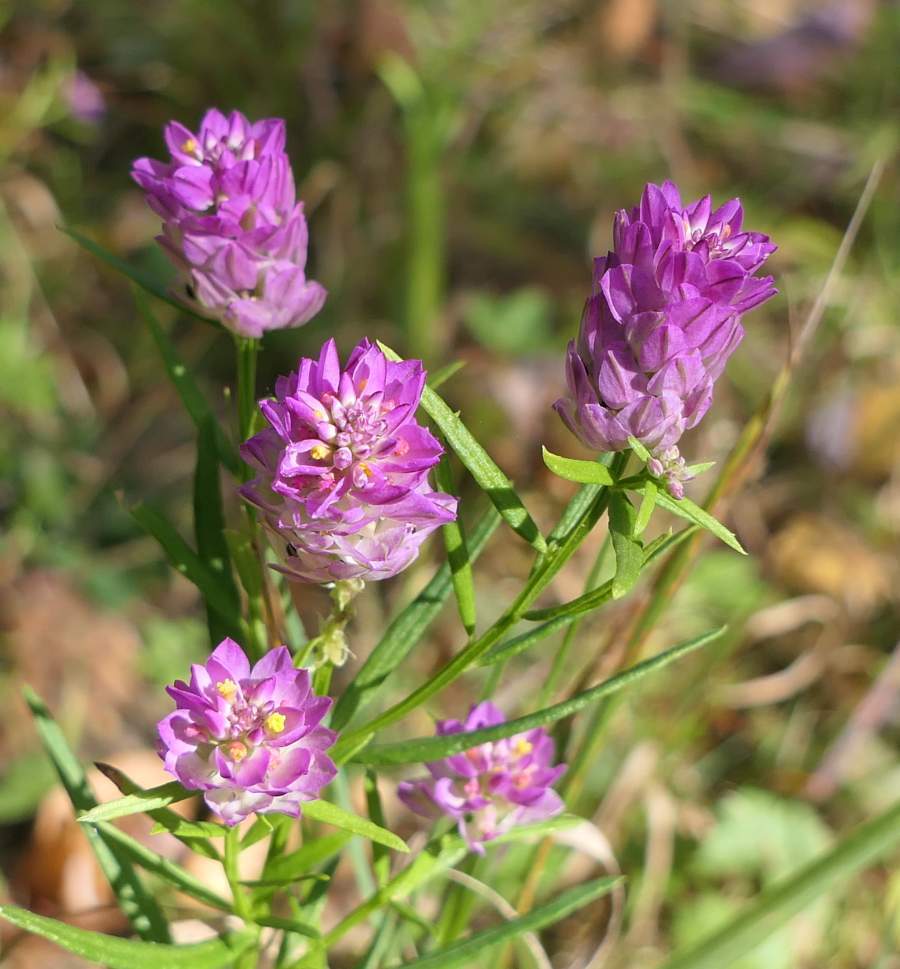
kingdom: Plantae
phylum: Tracheophyta
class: Magnoliopsida
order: Fabales
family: Polygalaceae
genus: Polygala
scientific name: Polygala sanguinea
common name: Blood milkwort
